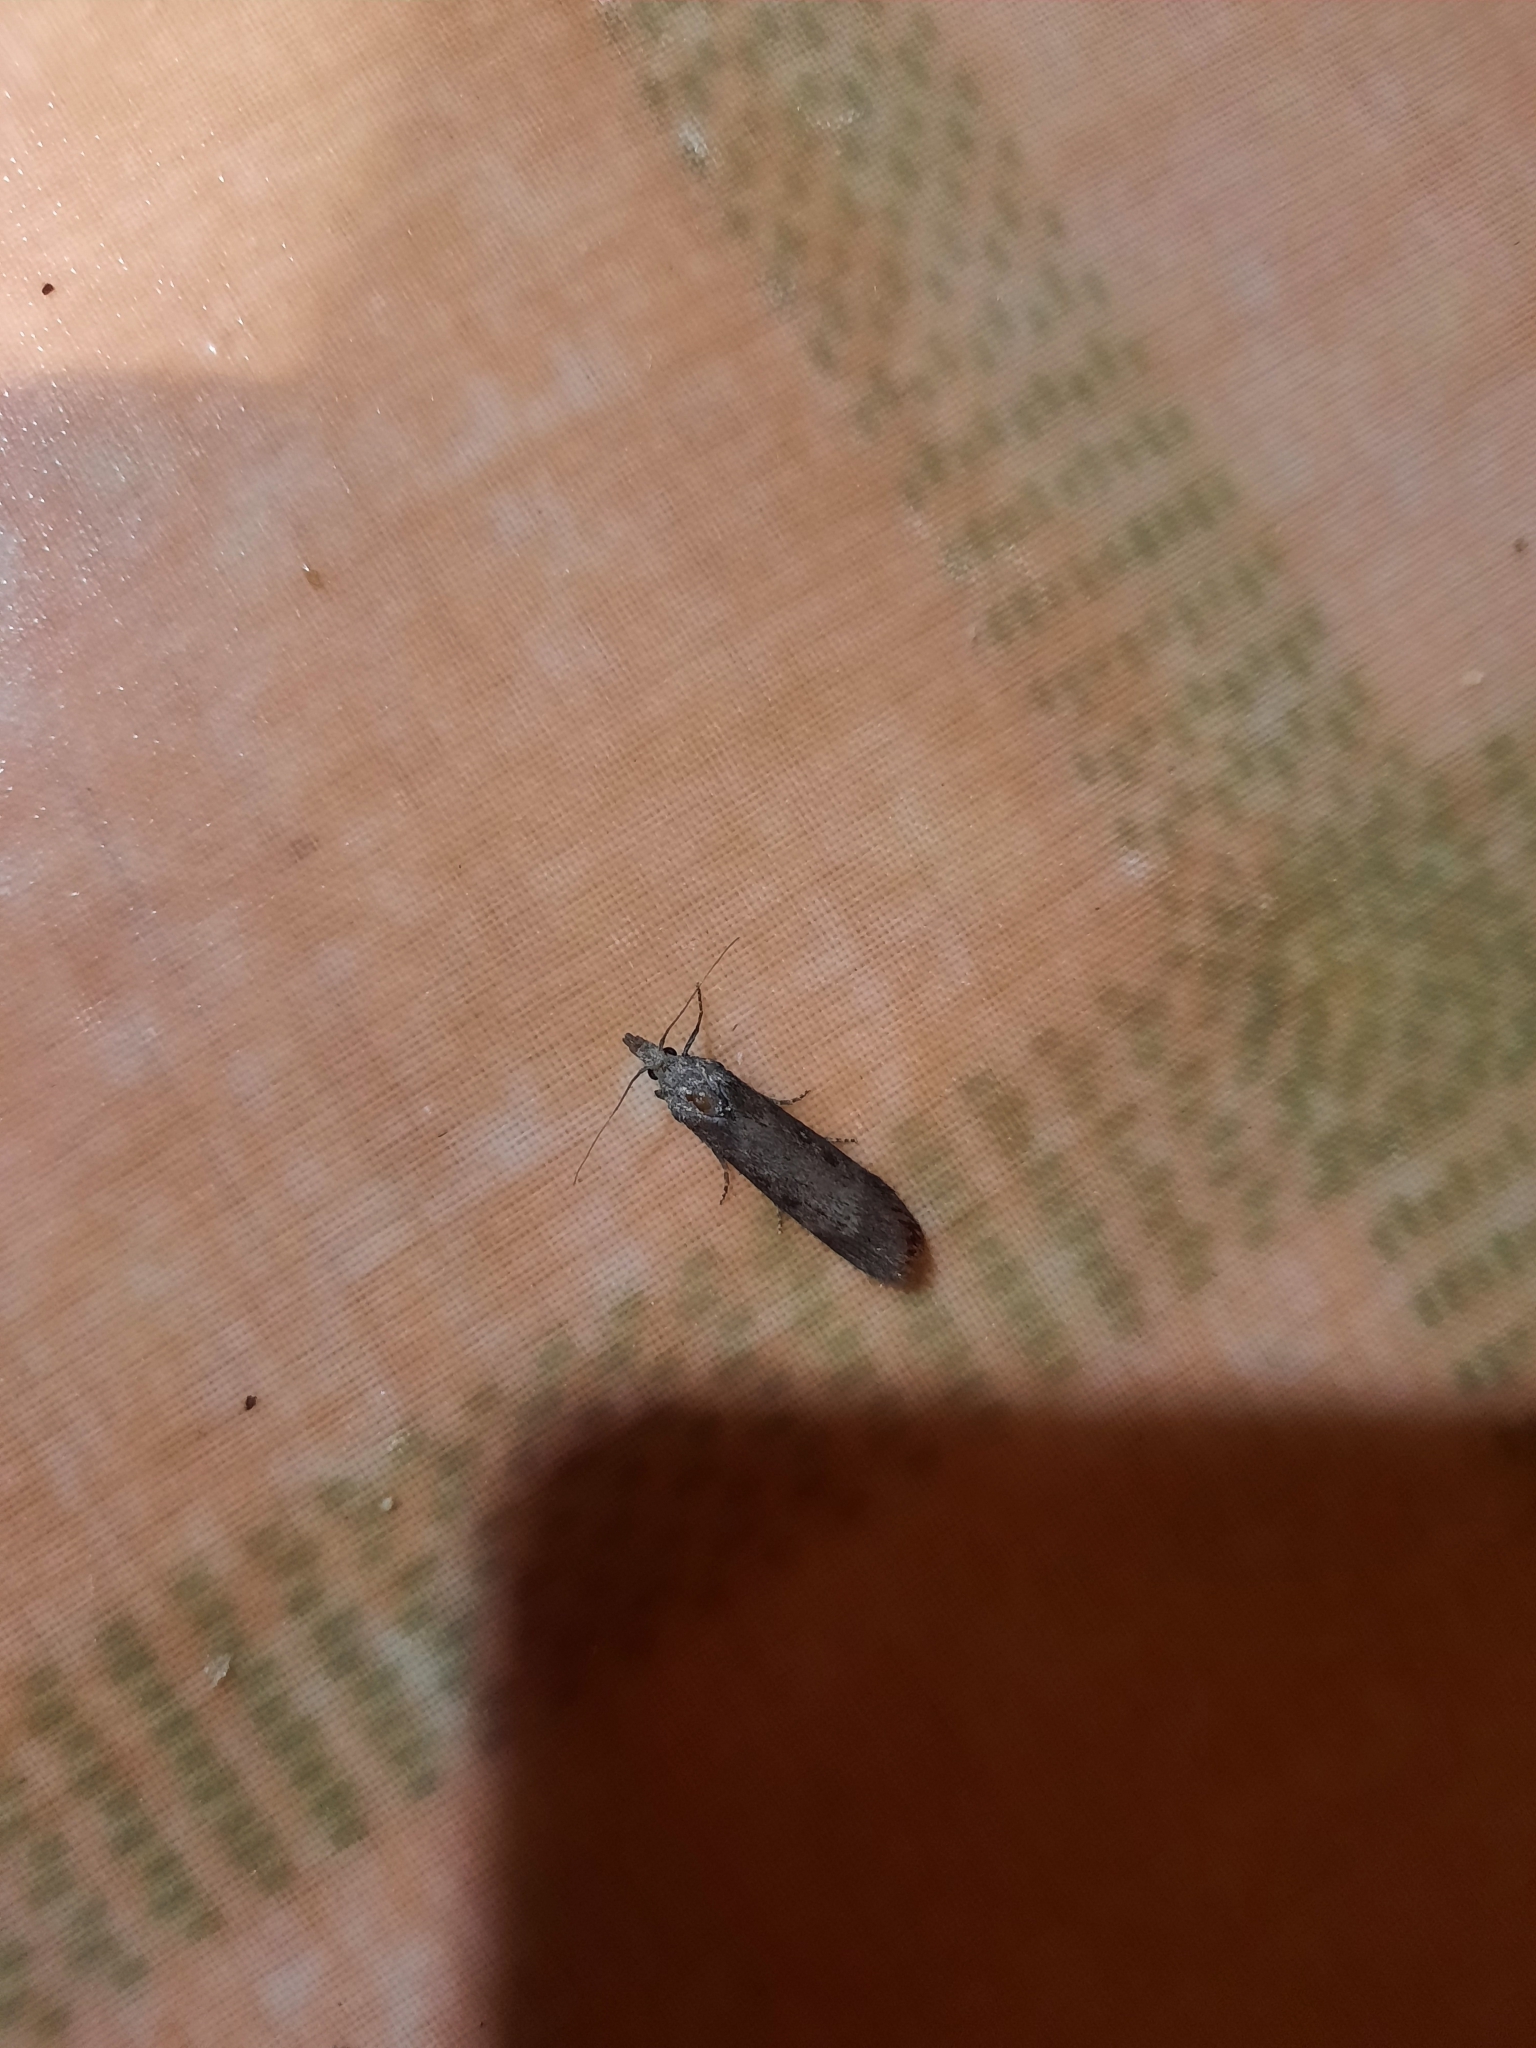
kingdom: Animalia
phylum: Arthropoda
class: Insecta
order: Lepidoptera
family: Pyralidae
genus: Aphomia
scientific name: Aphomia zelleri
